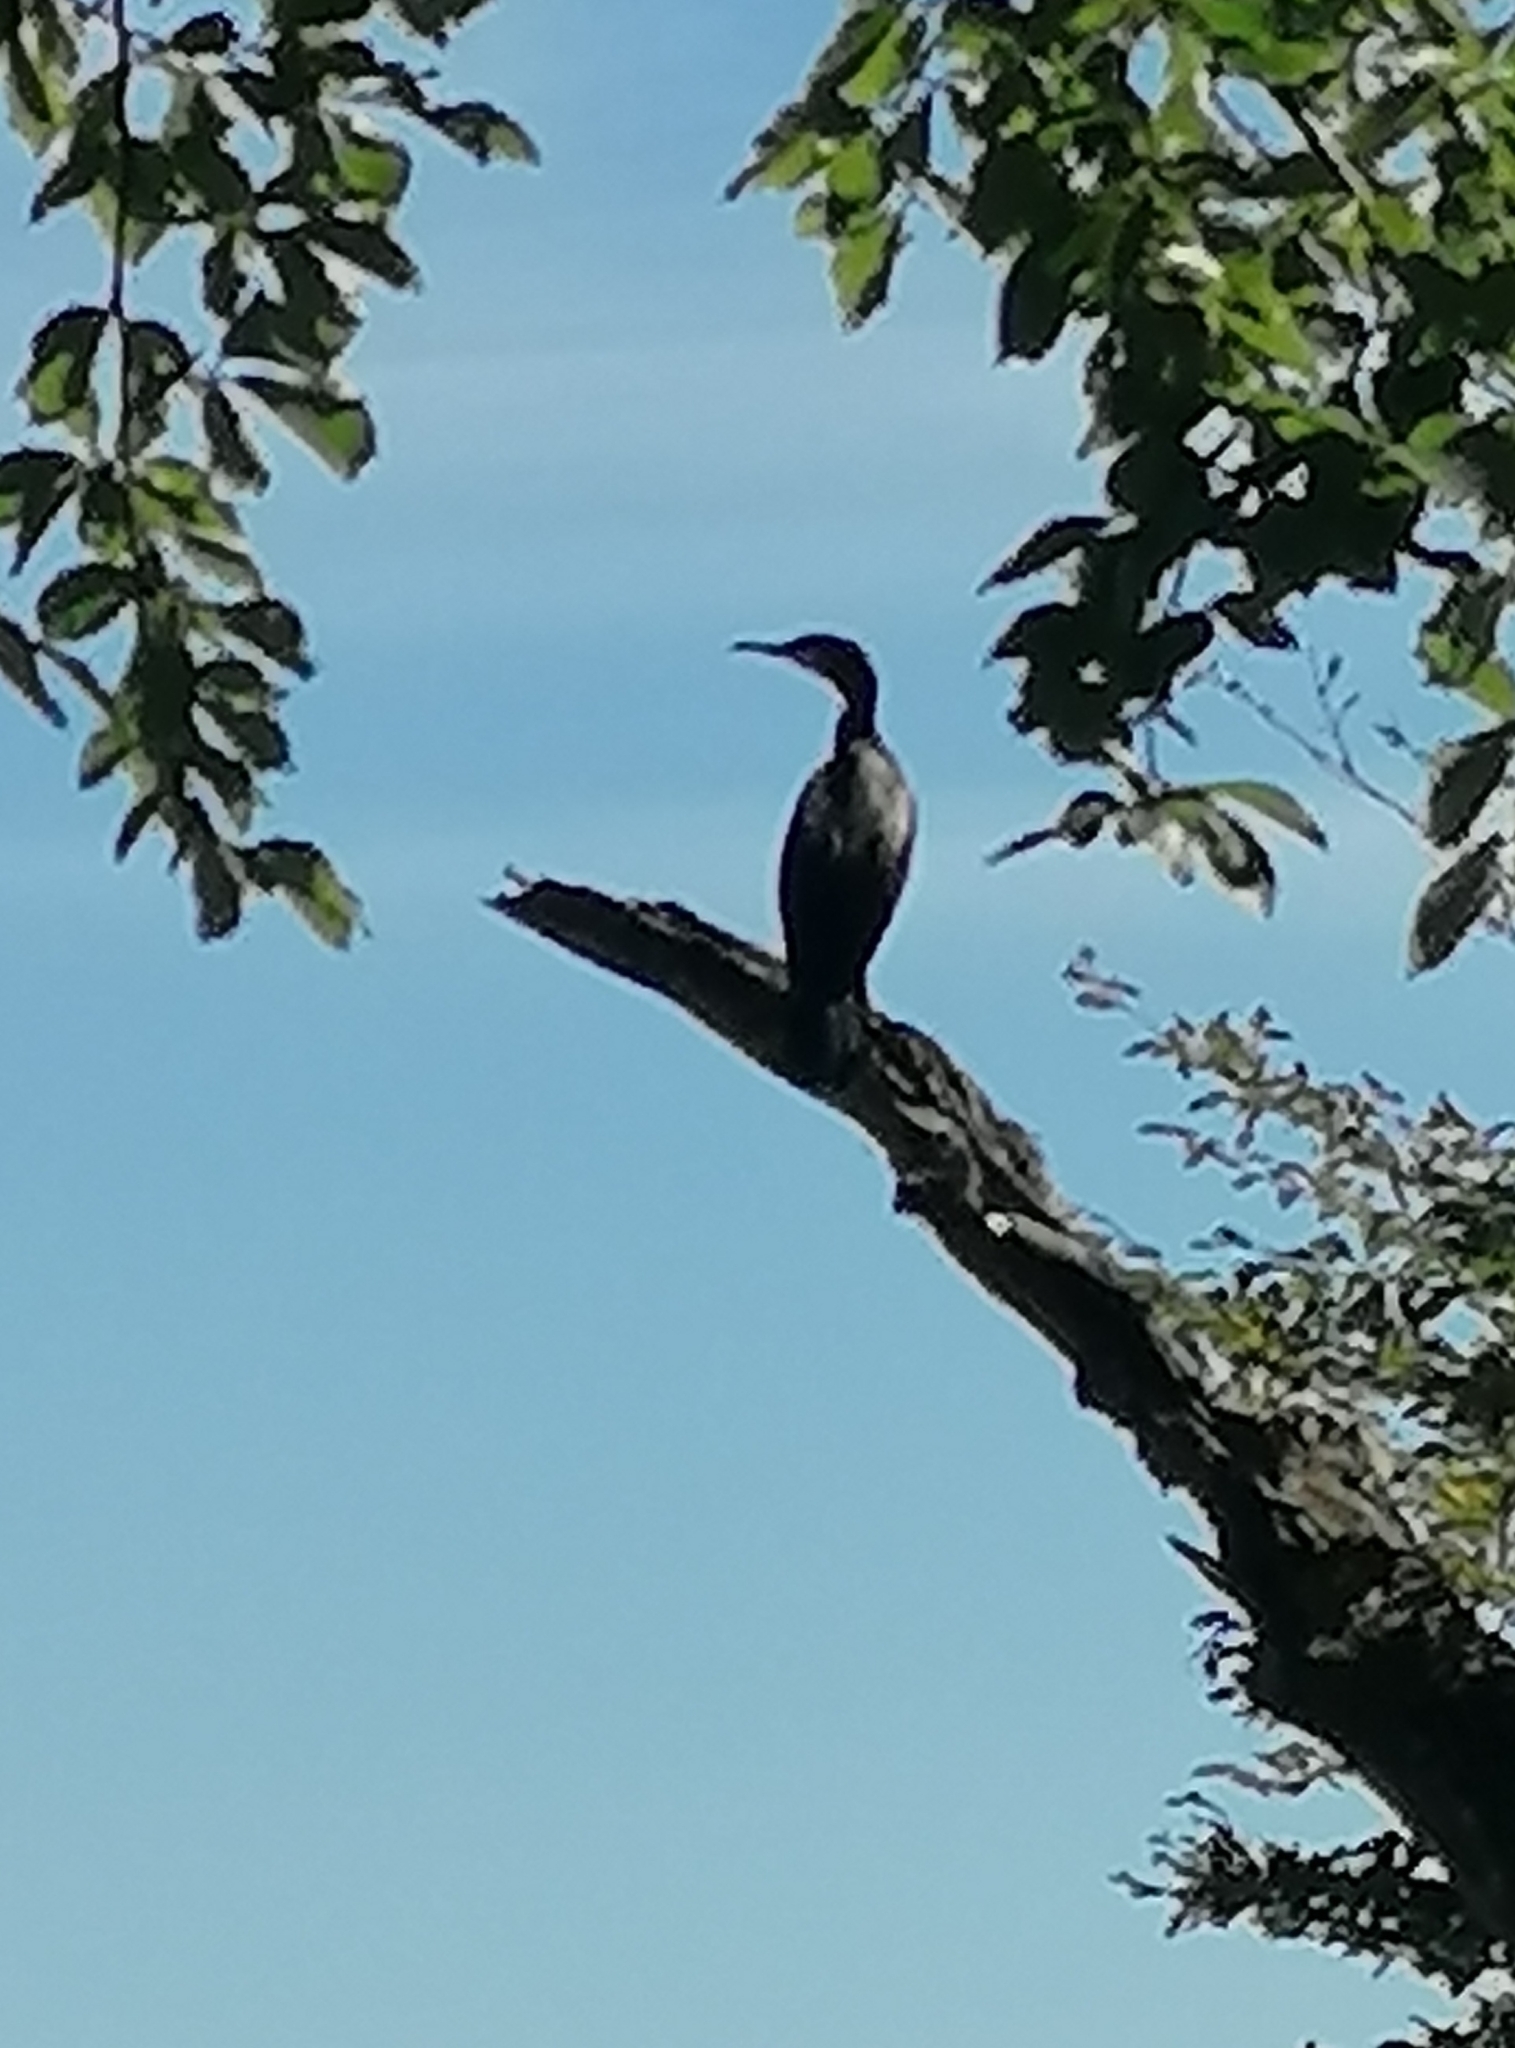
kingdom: Animalia
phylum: Chordata
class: Aves
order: Suliformes
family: Phalacrocoracidae
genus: Phalacrocorax
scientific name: Phalacrocorax carbo
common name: Great cormorant
